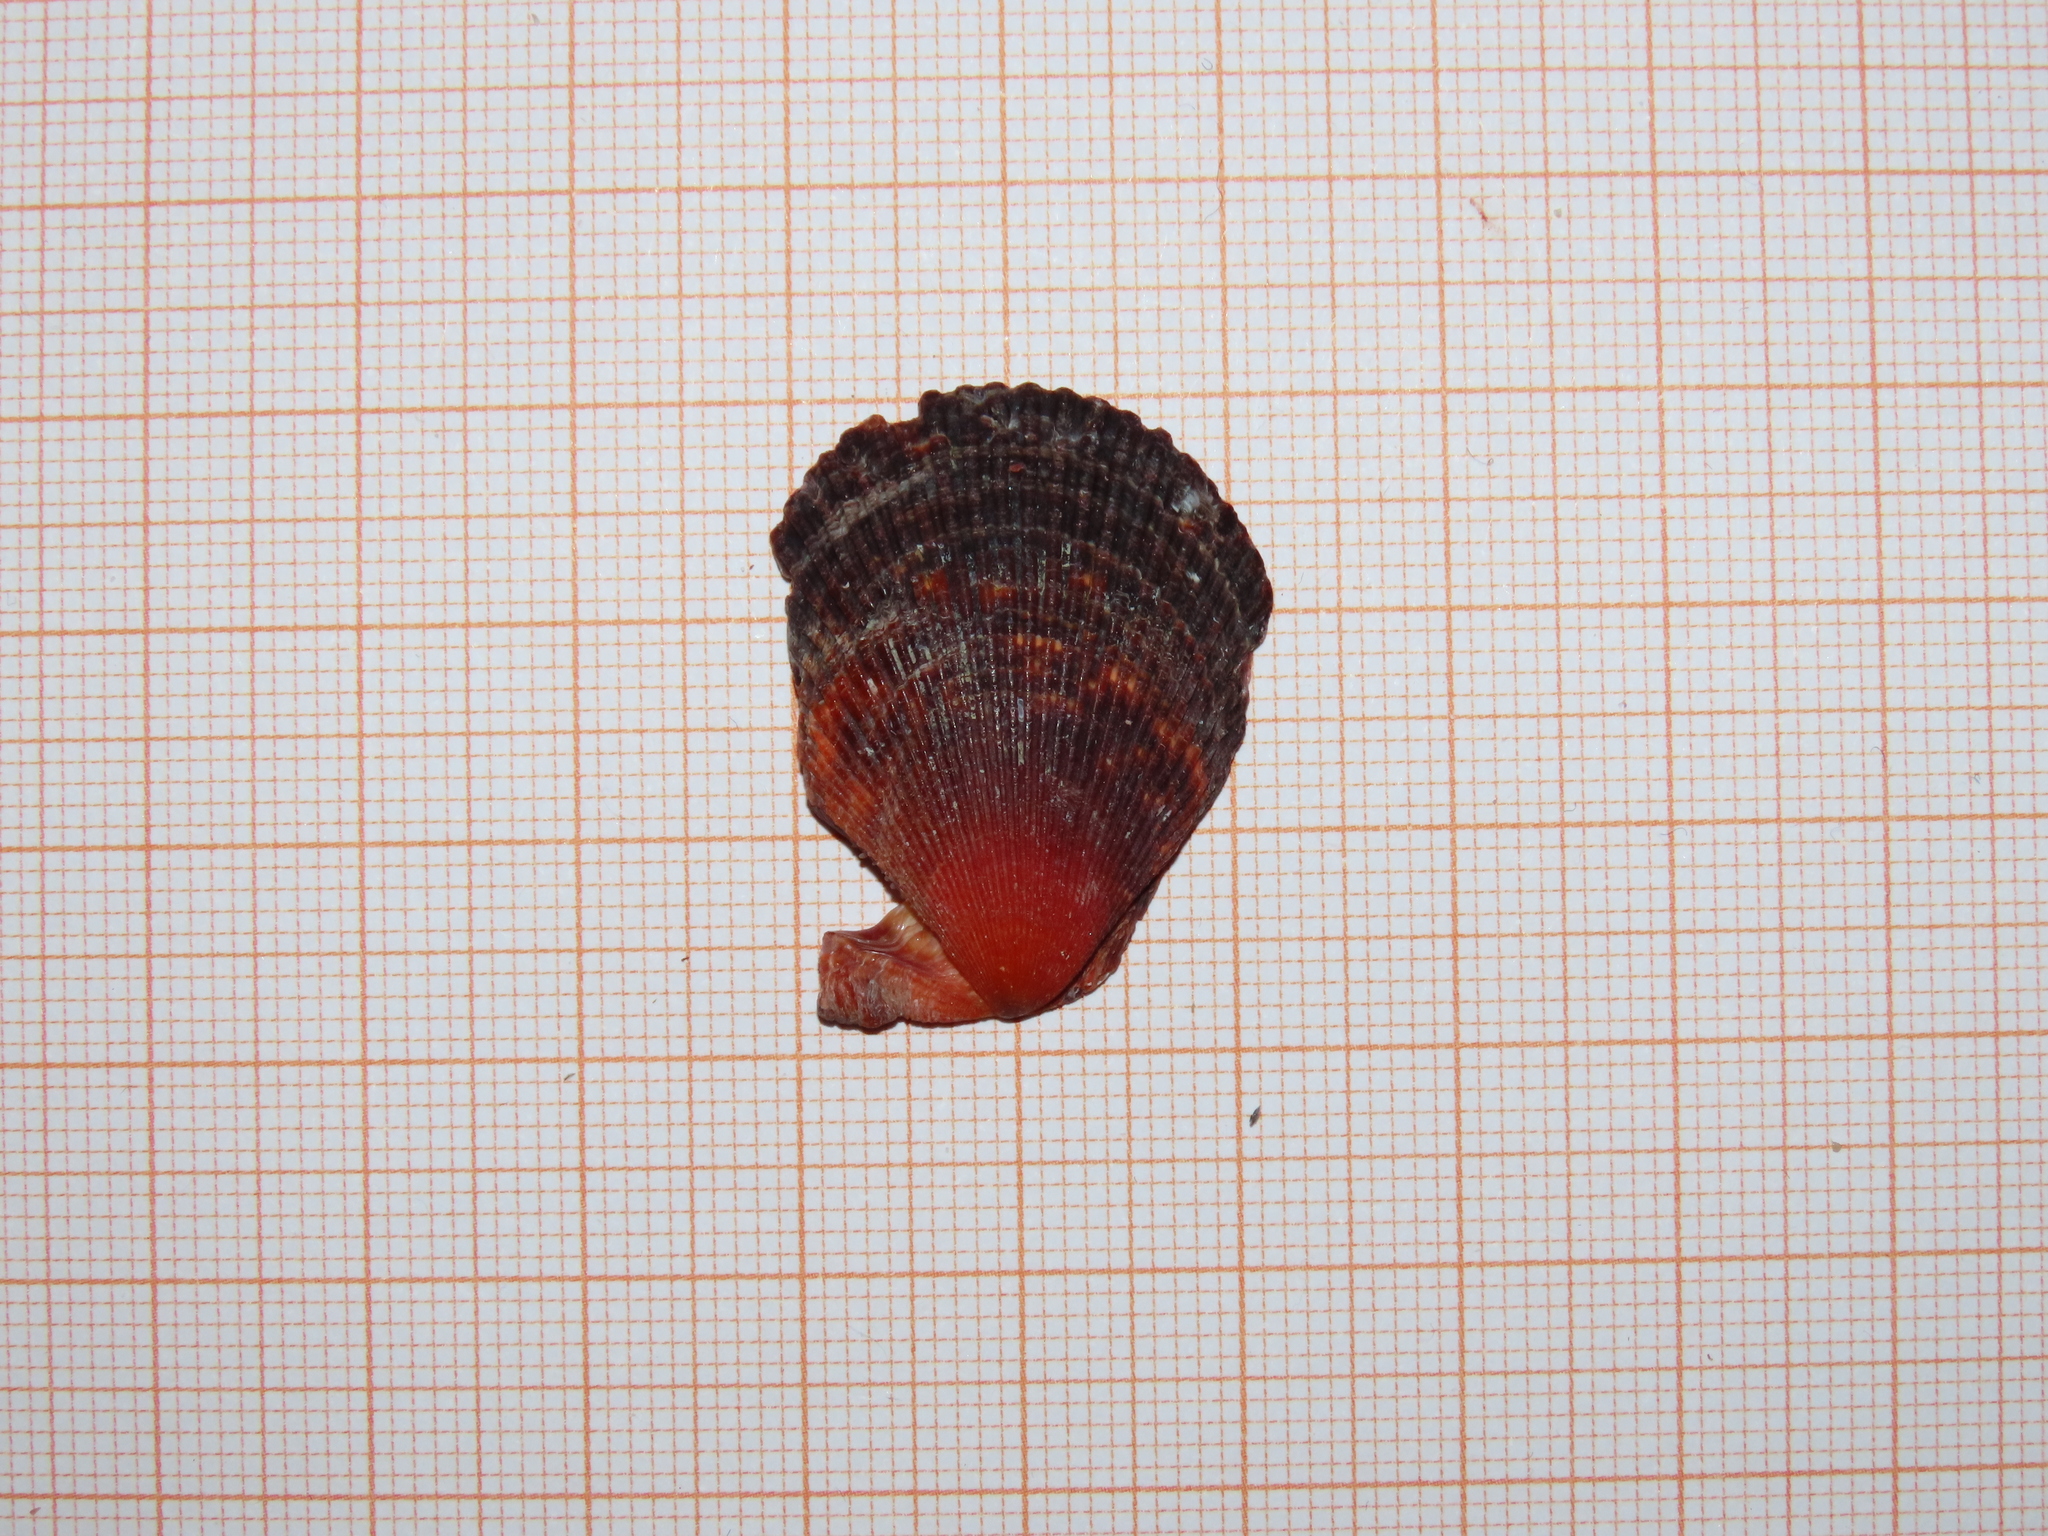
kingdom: Animalia
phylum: Mollusca
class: Bivalvia
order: Pectinida
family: Pectinidae
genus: Mimachlamys
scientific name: Mimachlamys varia
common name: Variegated scallop
